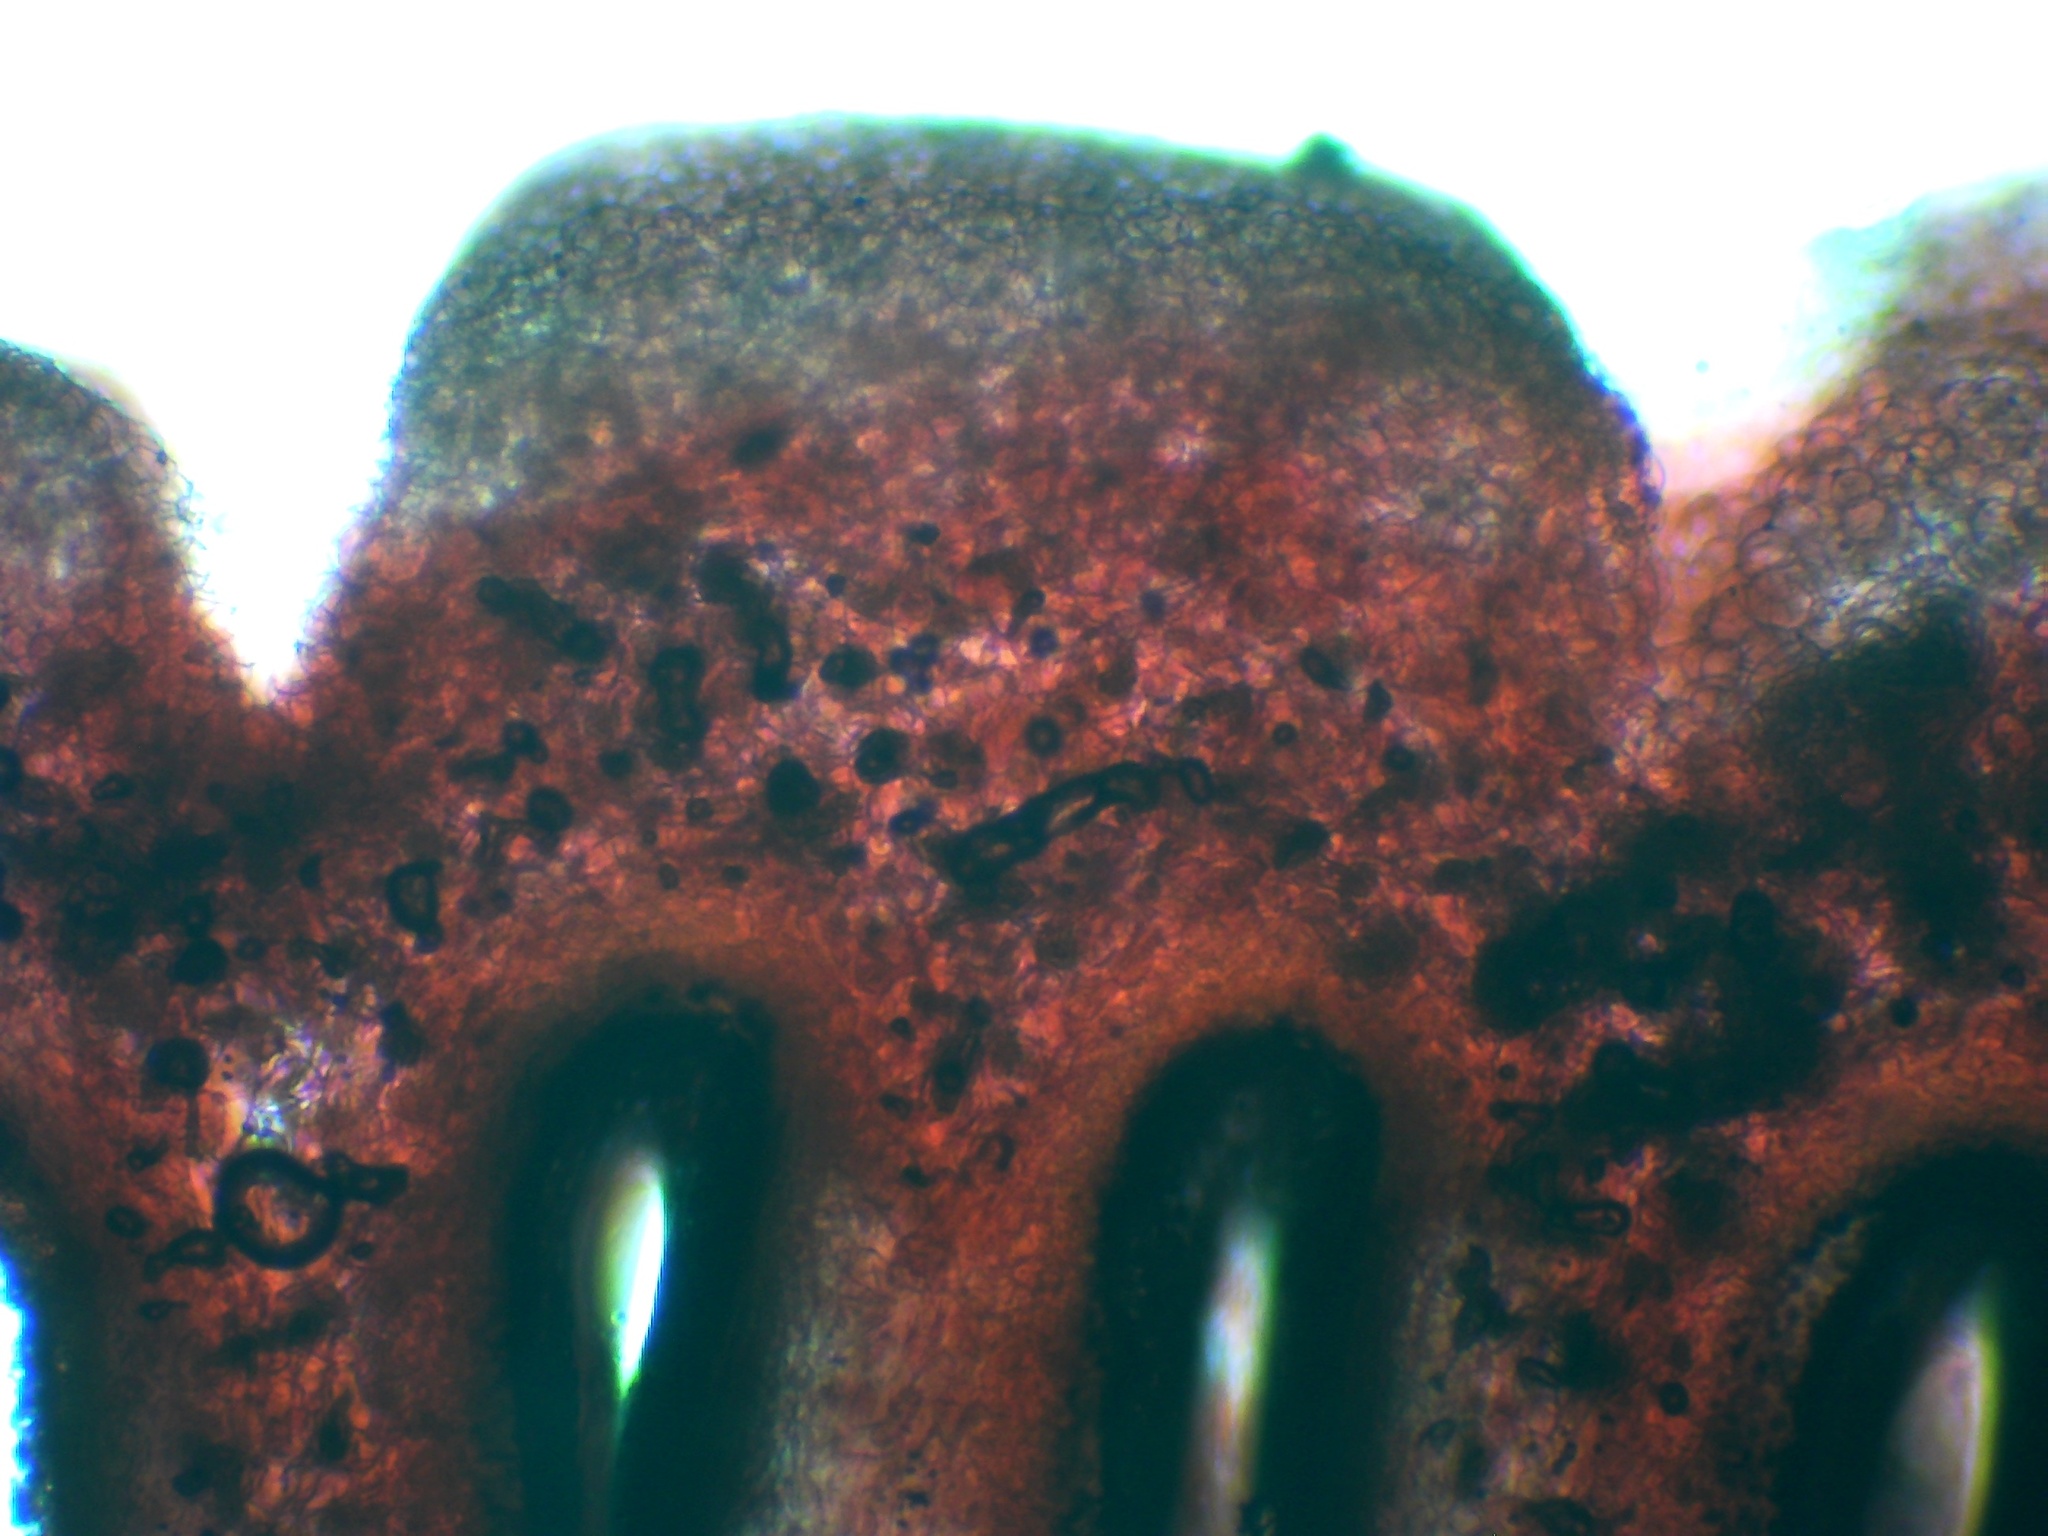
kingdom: Fungi
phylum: Basidiomycota
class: Agaricomycetes
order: Agaricales
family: Psathyrellaceae
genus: Coprinellus
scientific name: Coprinellus truncorum
